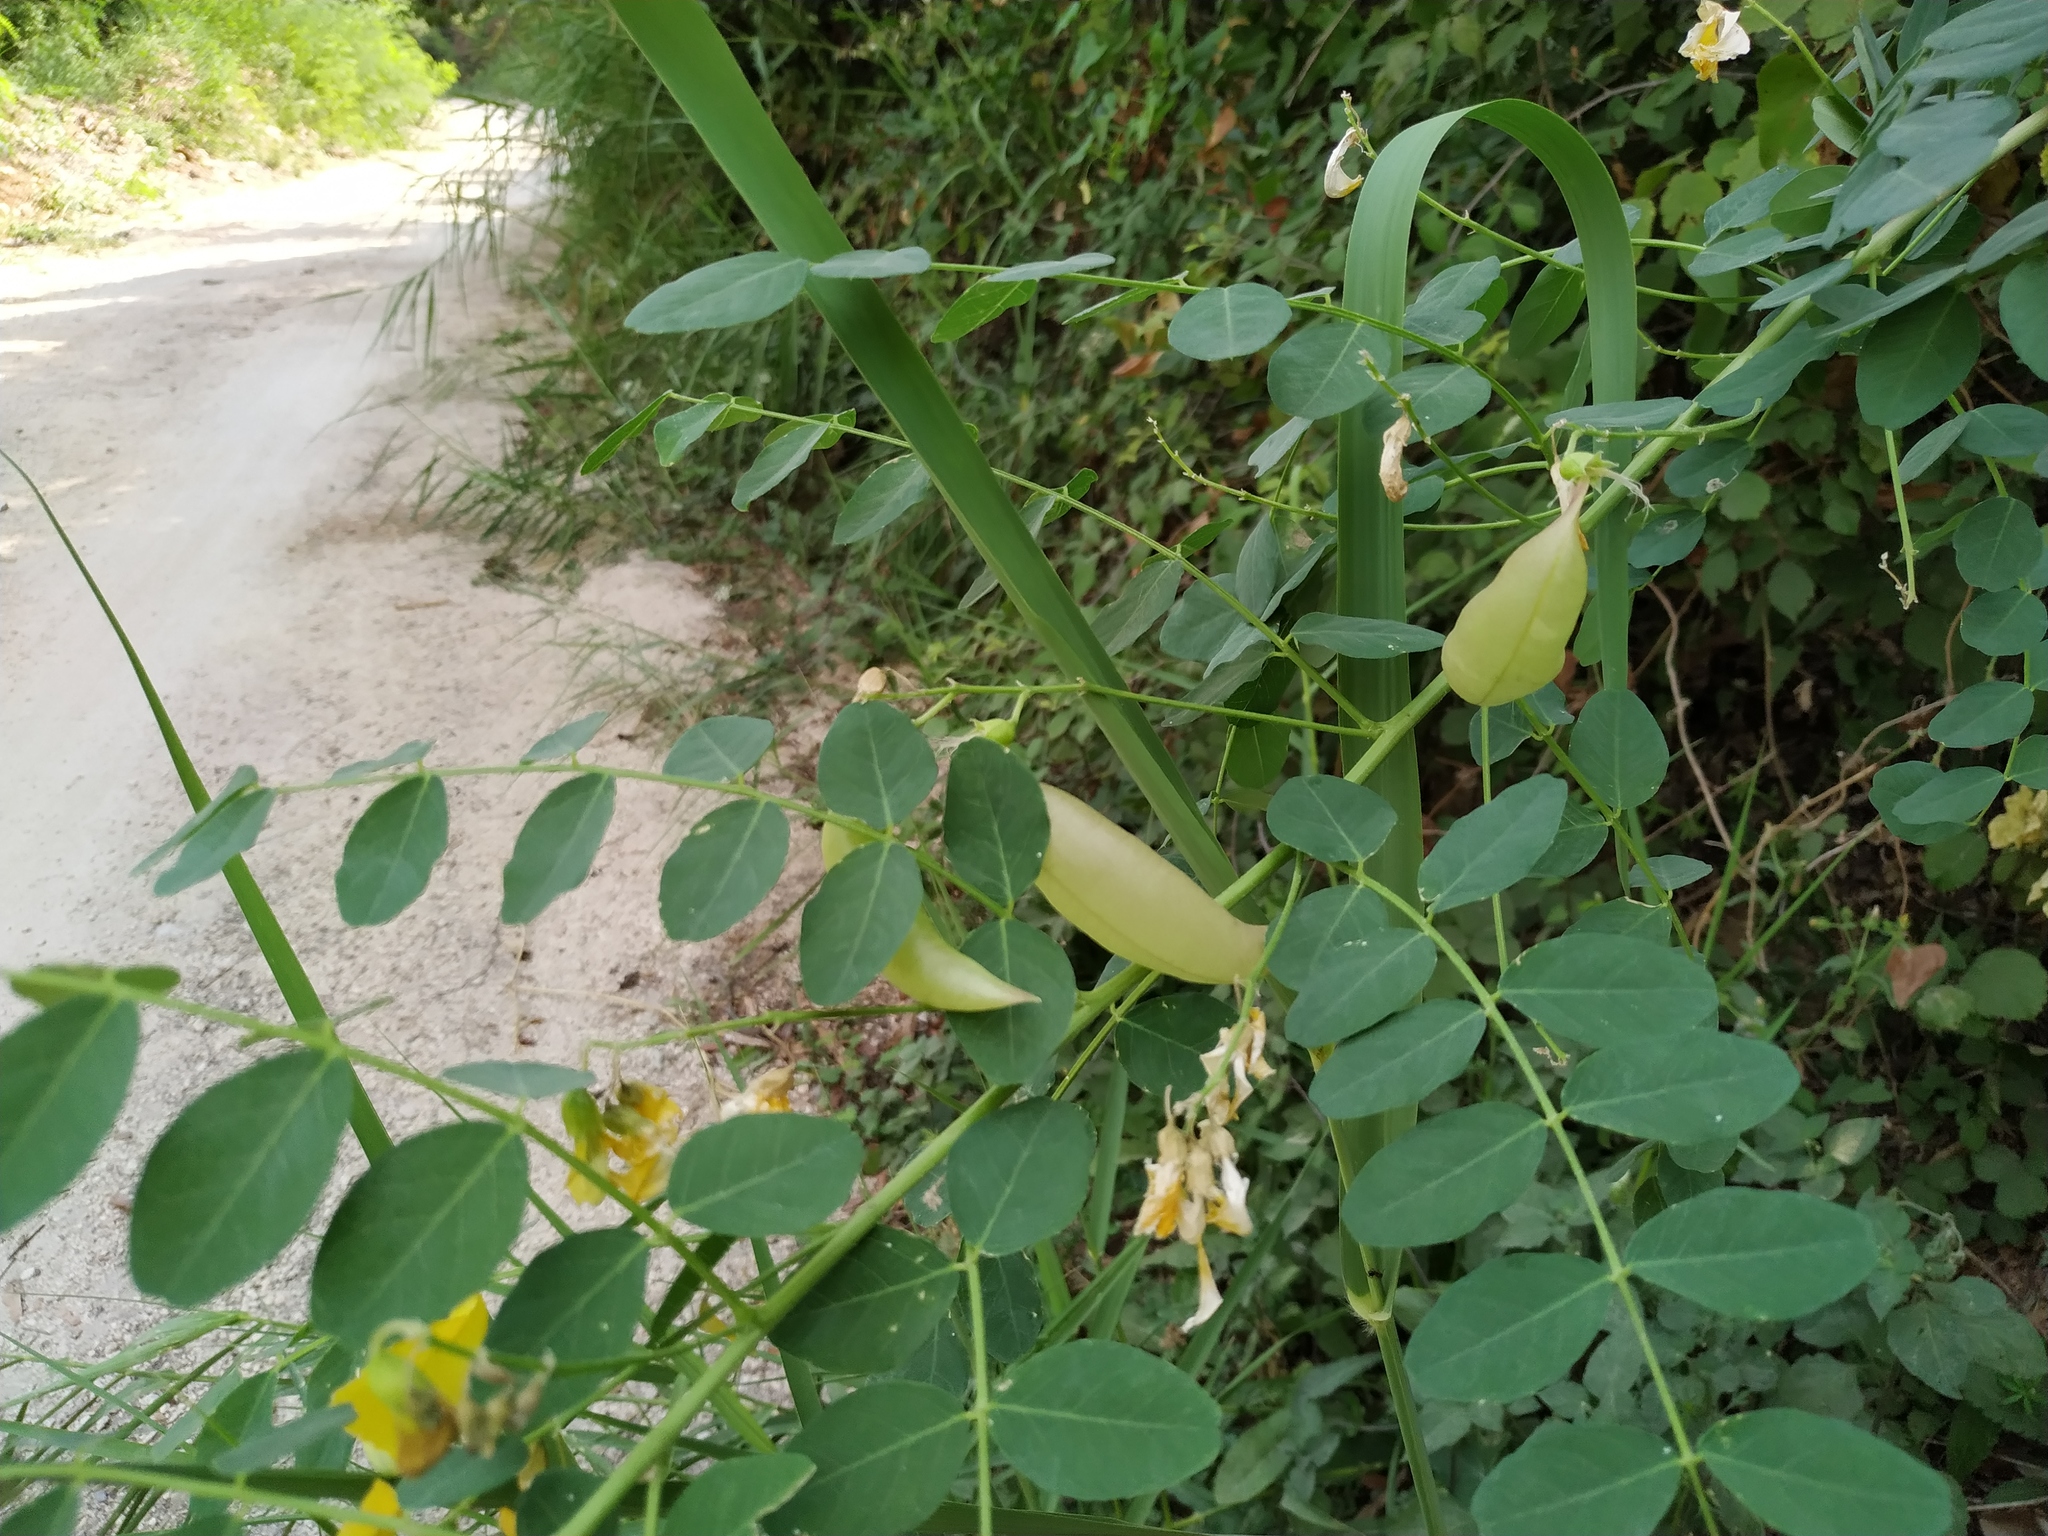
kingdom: Plantae
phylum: Tracheophyta
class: Magnoliopsida
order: Fabales
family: Fabaceae
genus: Colutea
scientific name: Colutea arborescens
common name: Bladder-senna
